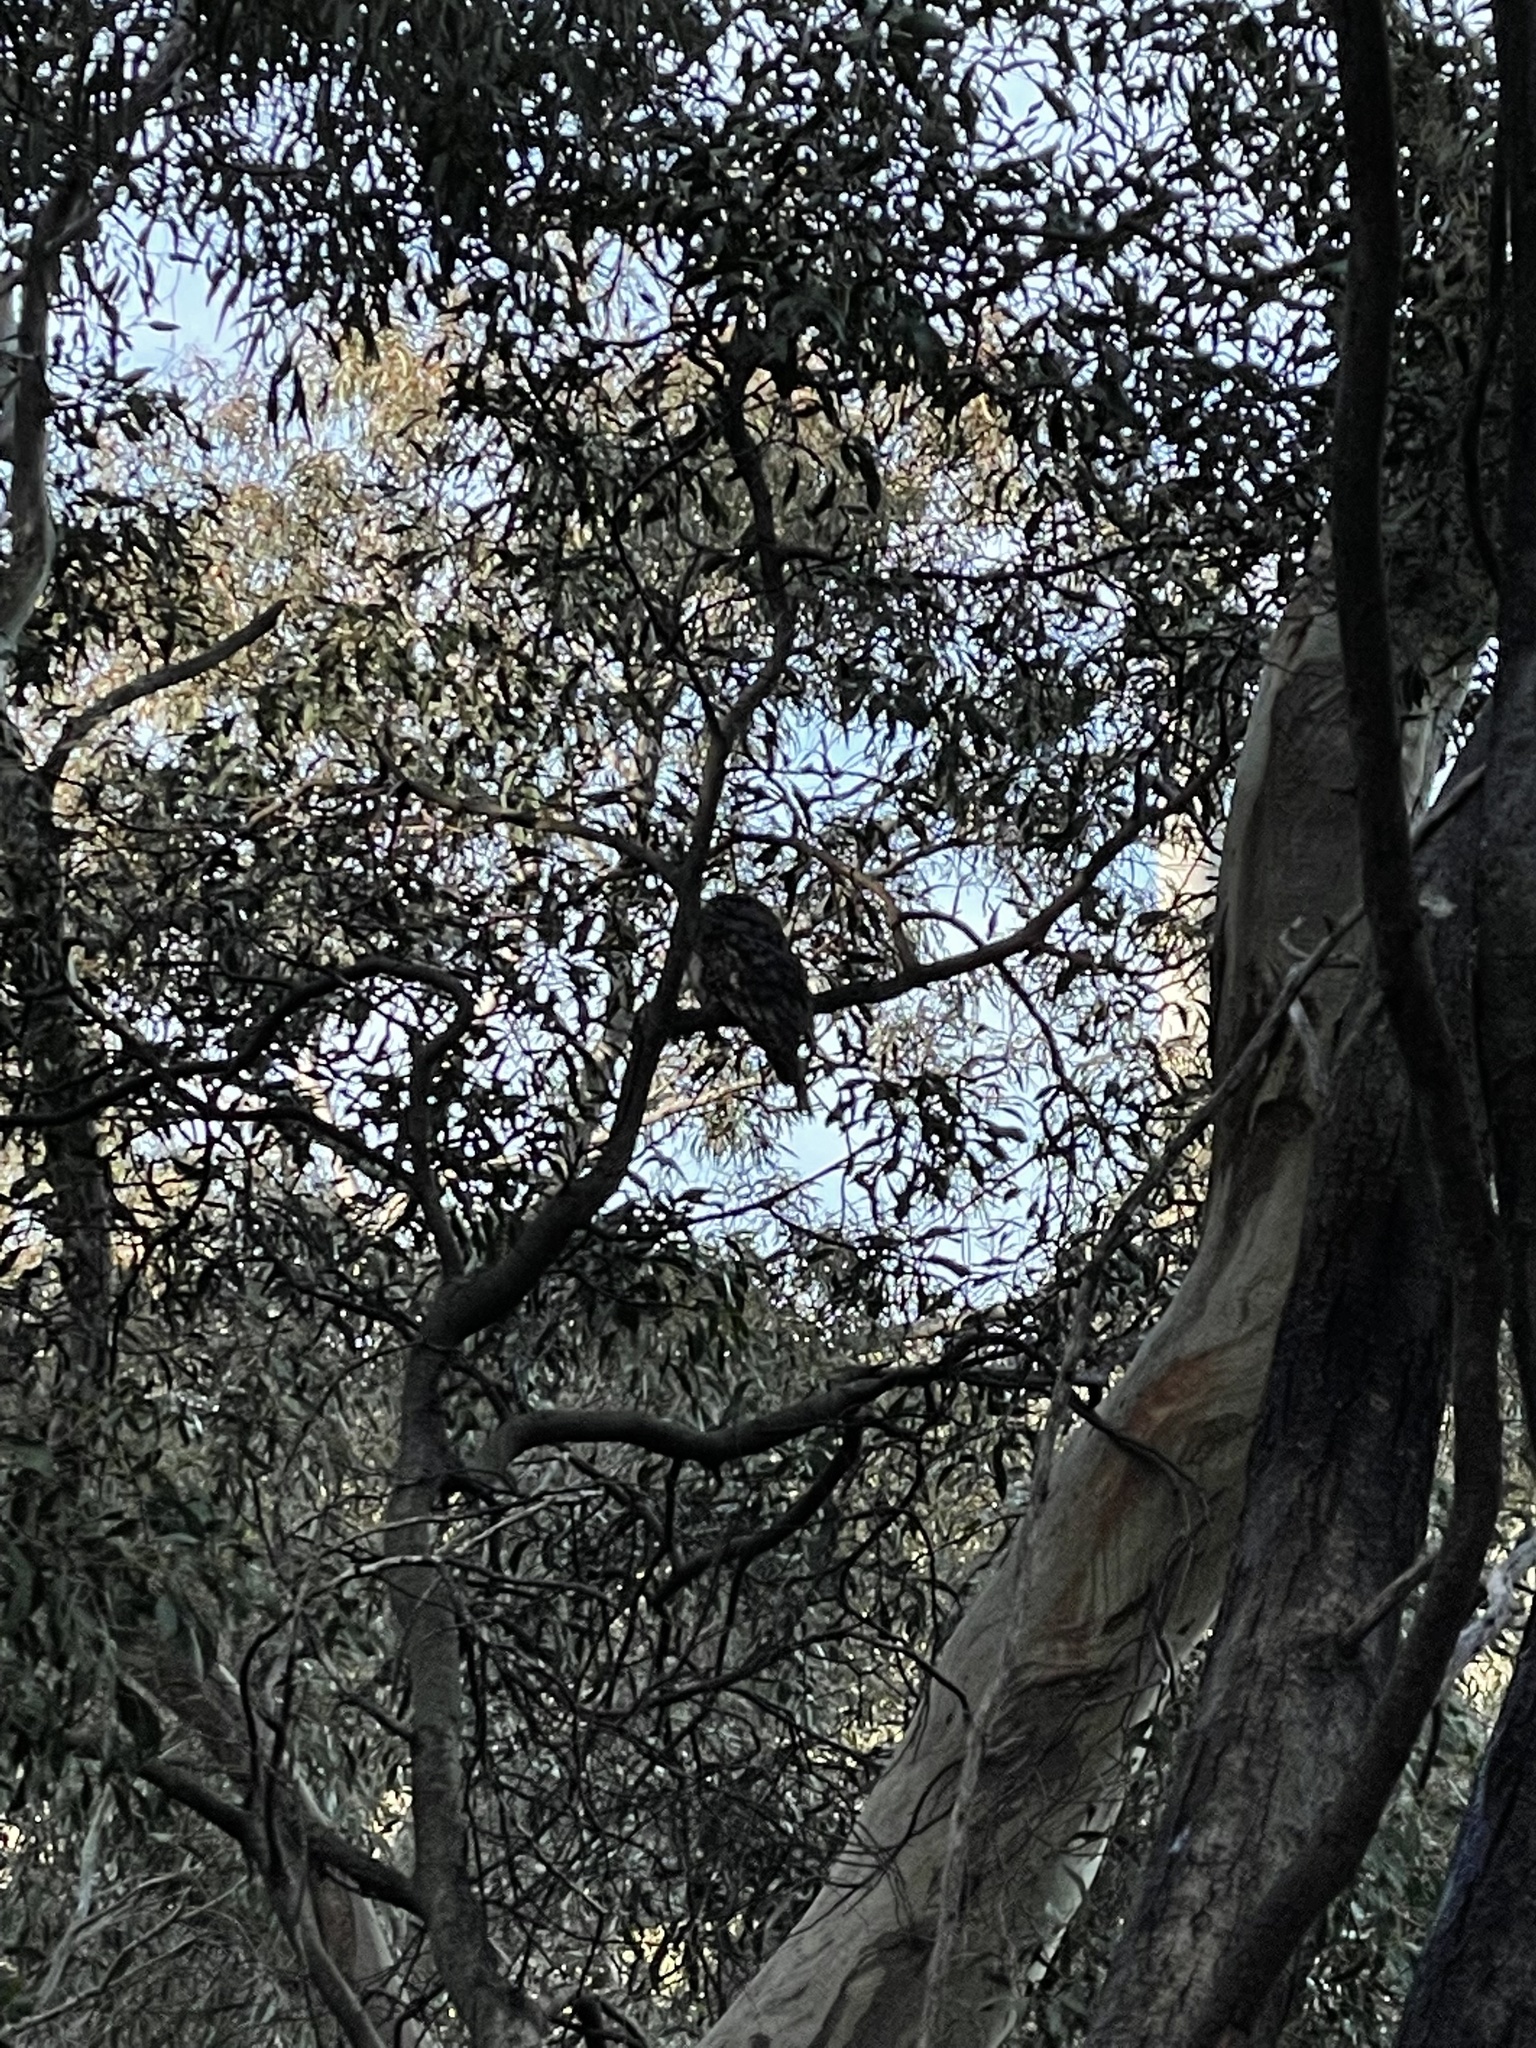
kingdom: Animalia
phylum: Chordata
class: Aves
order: Caprimulgiformes
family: Podargidae
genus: Podargus
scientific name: Podargus strigoides
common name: Tawny frogmouth
